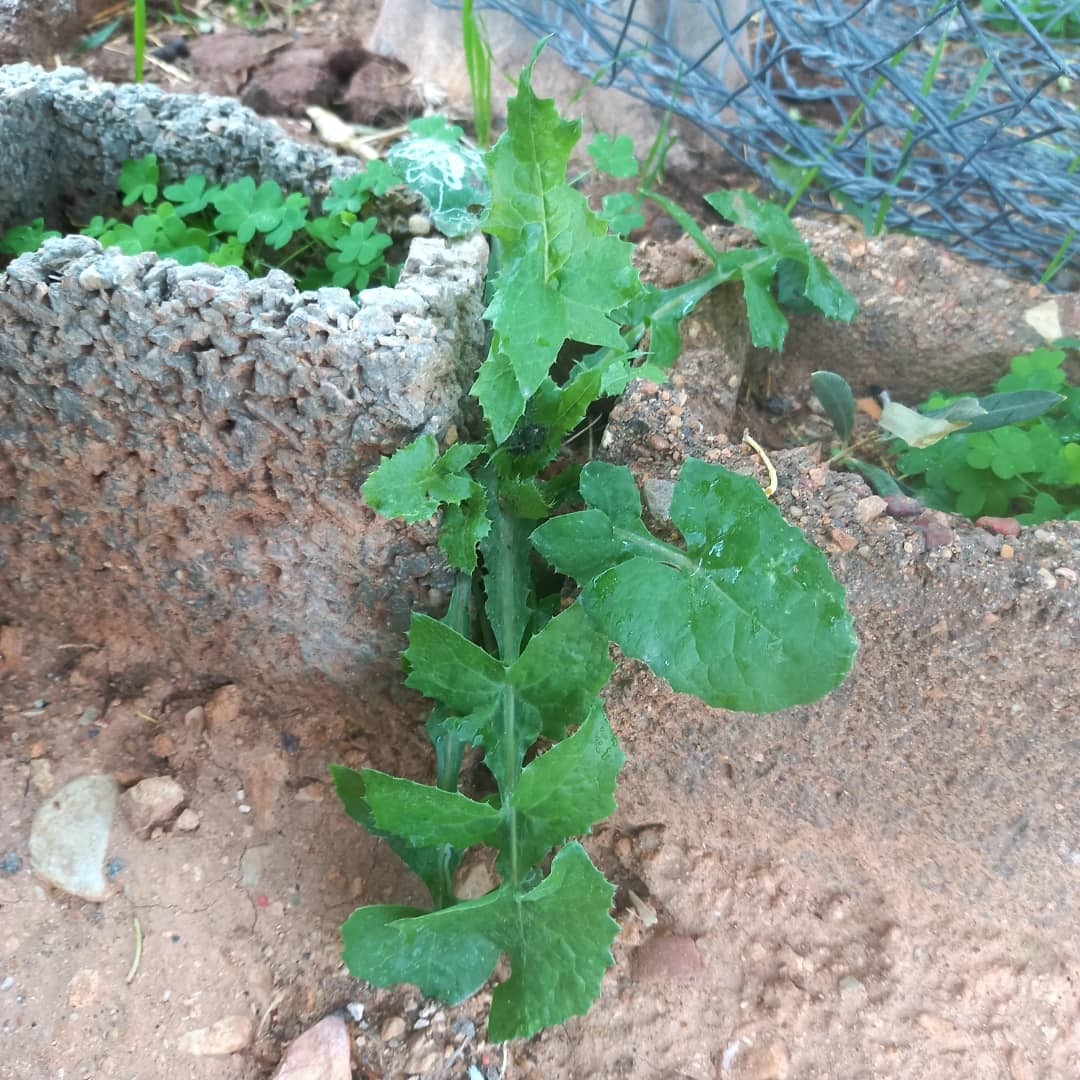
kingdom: Plantae
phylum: Tracheophyta
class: Magnoliopsida
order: Asterales
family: Asteraceae
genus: Sonchus
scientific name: Sonchus oleraceus
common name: Common sowthistle
